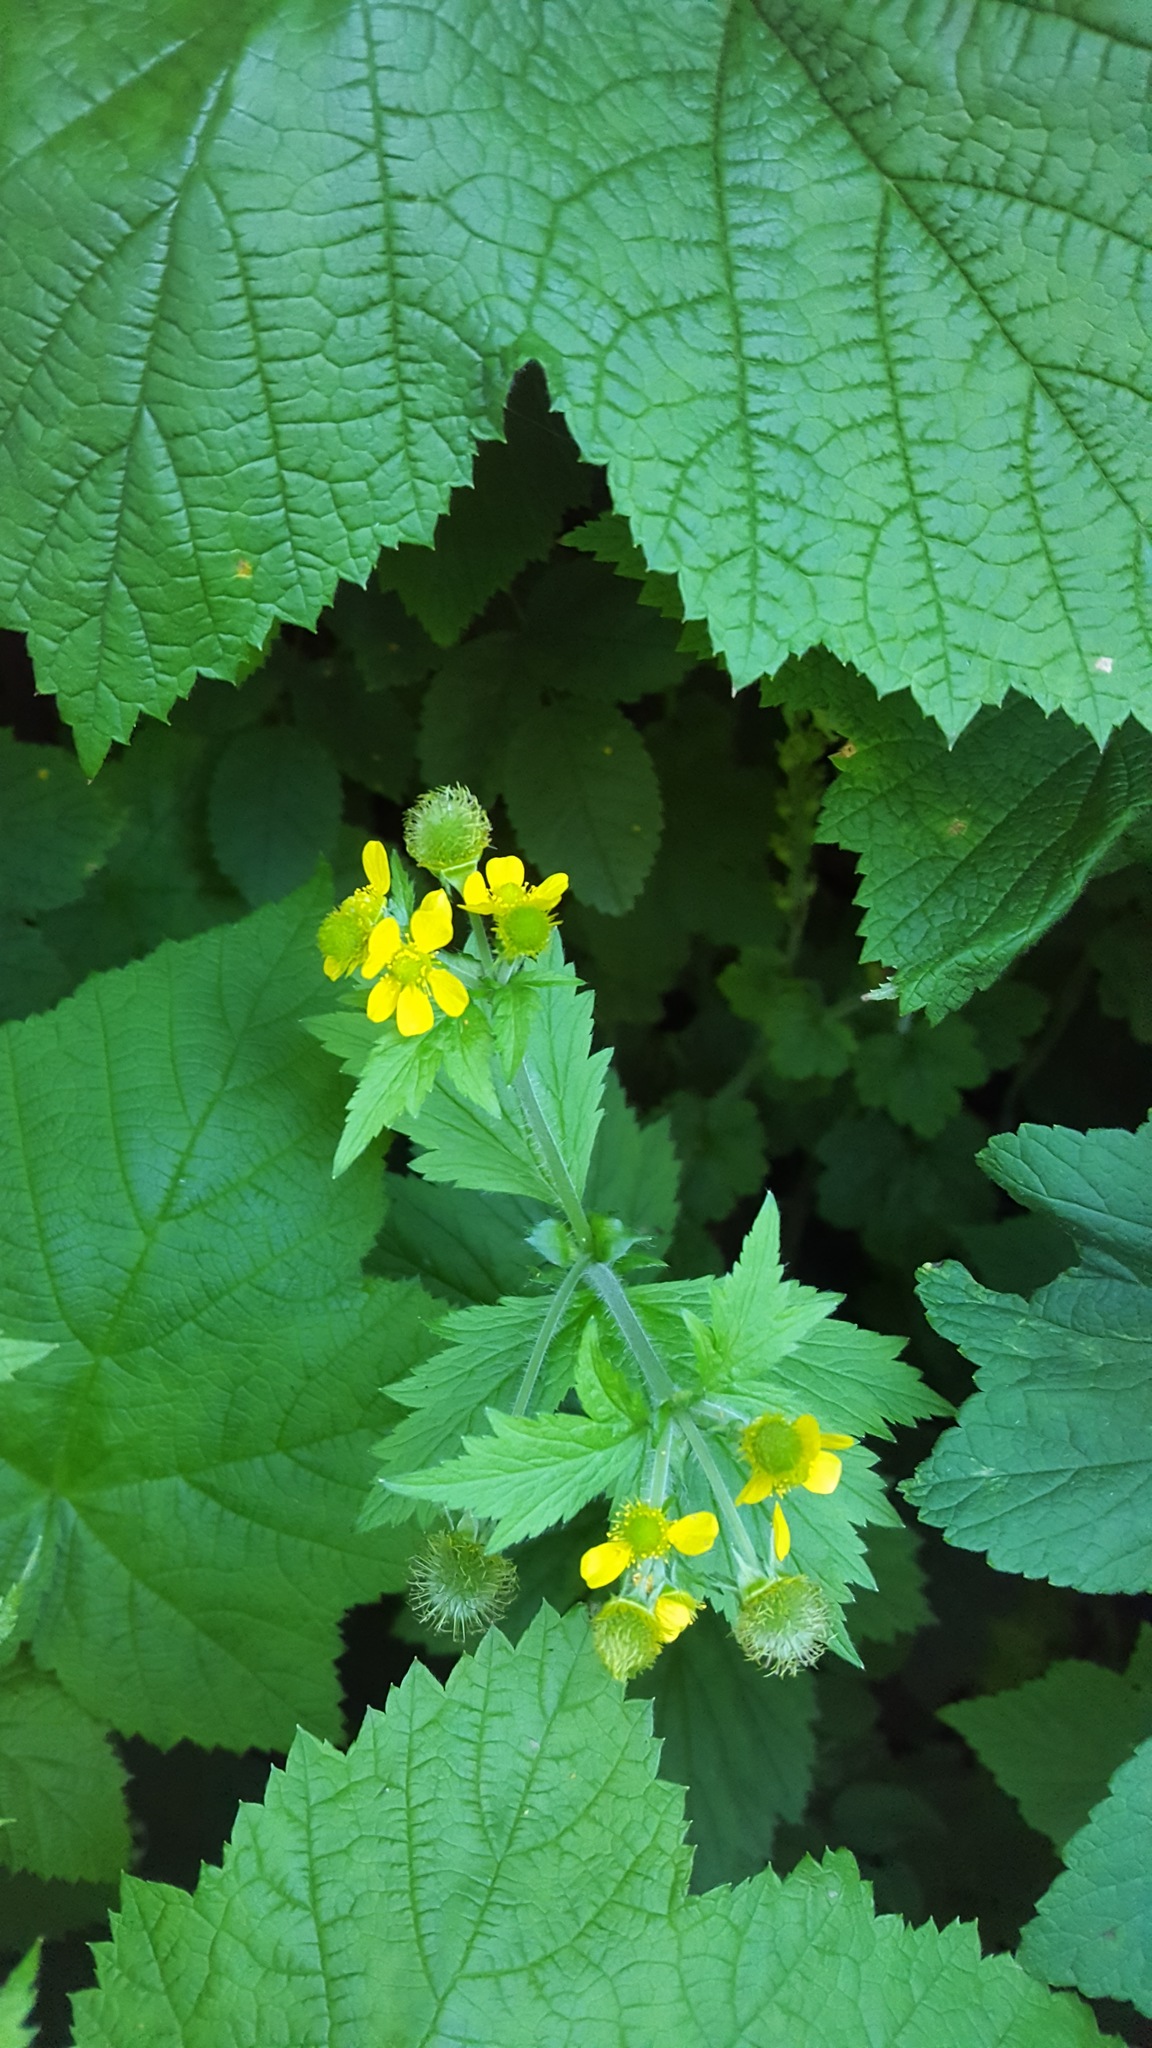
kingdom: Plantae
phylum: Tracheophyta
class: Magnoliopsida
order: Rosales
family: Rosaceae
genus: Geum
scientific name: Geum macrophyllum
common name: Large-leaved avens
